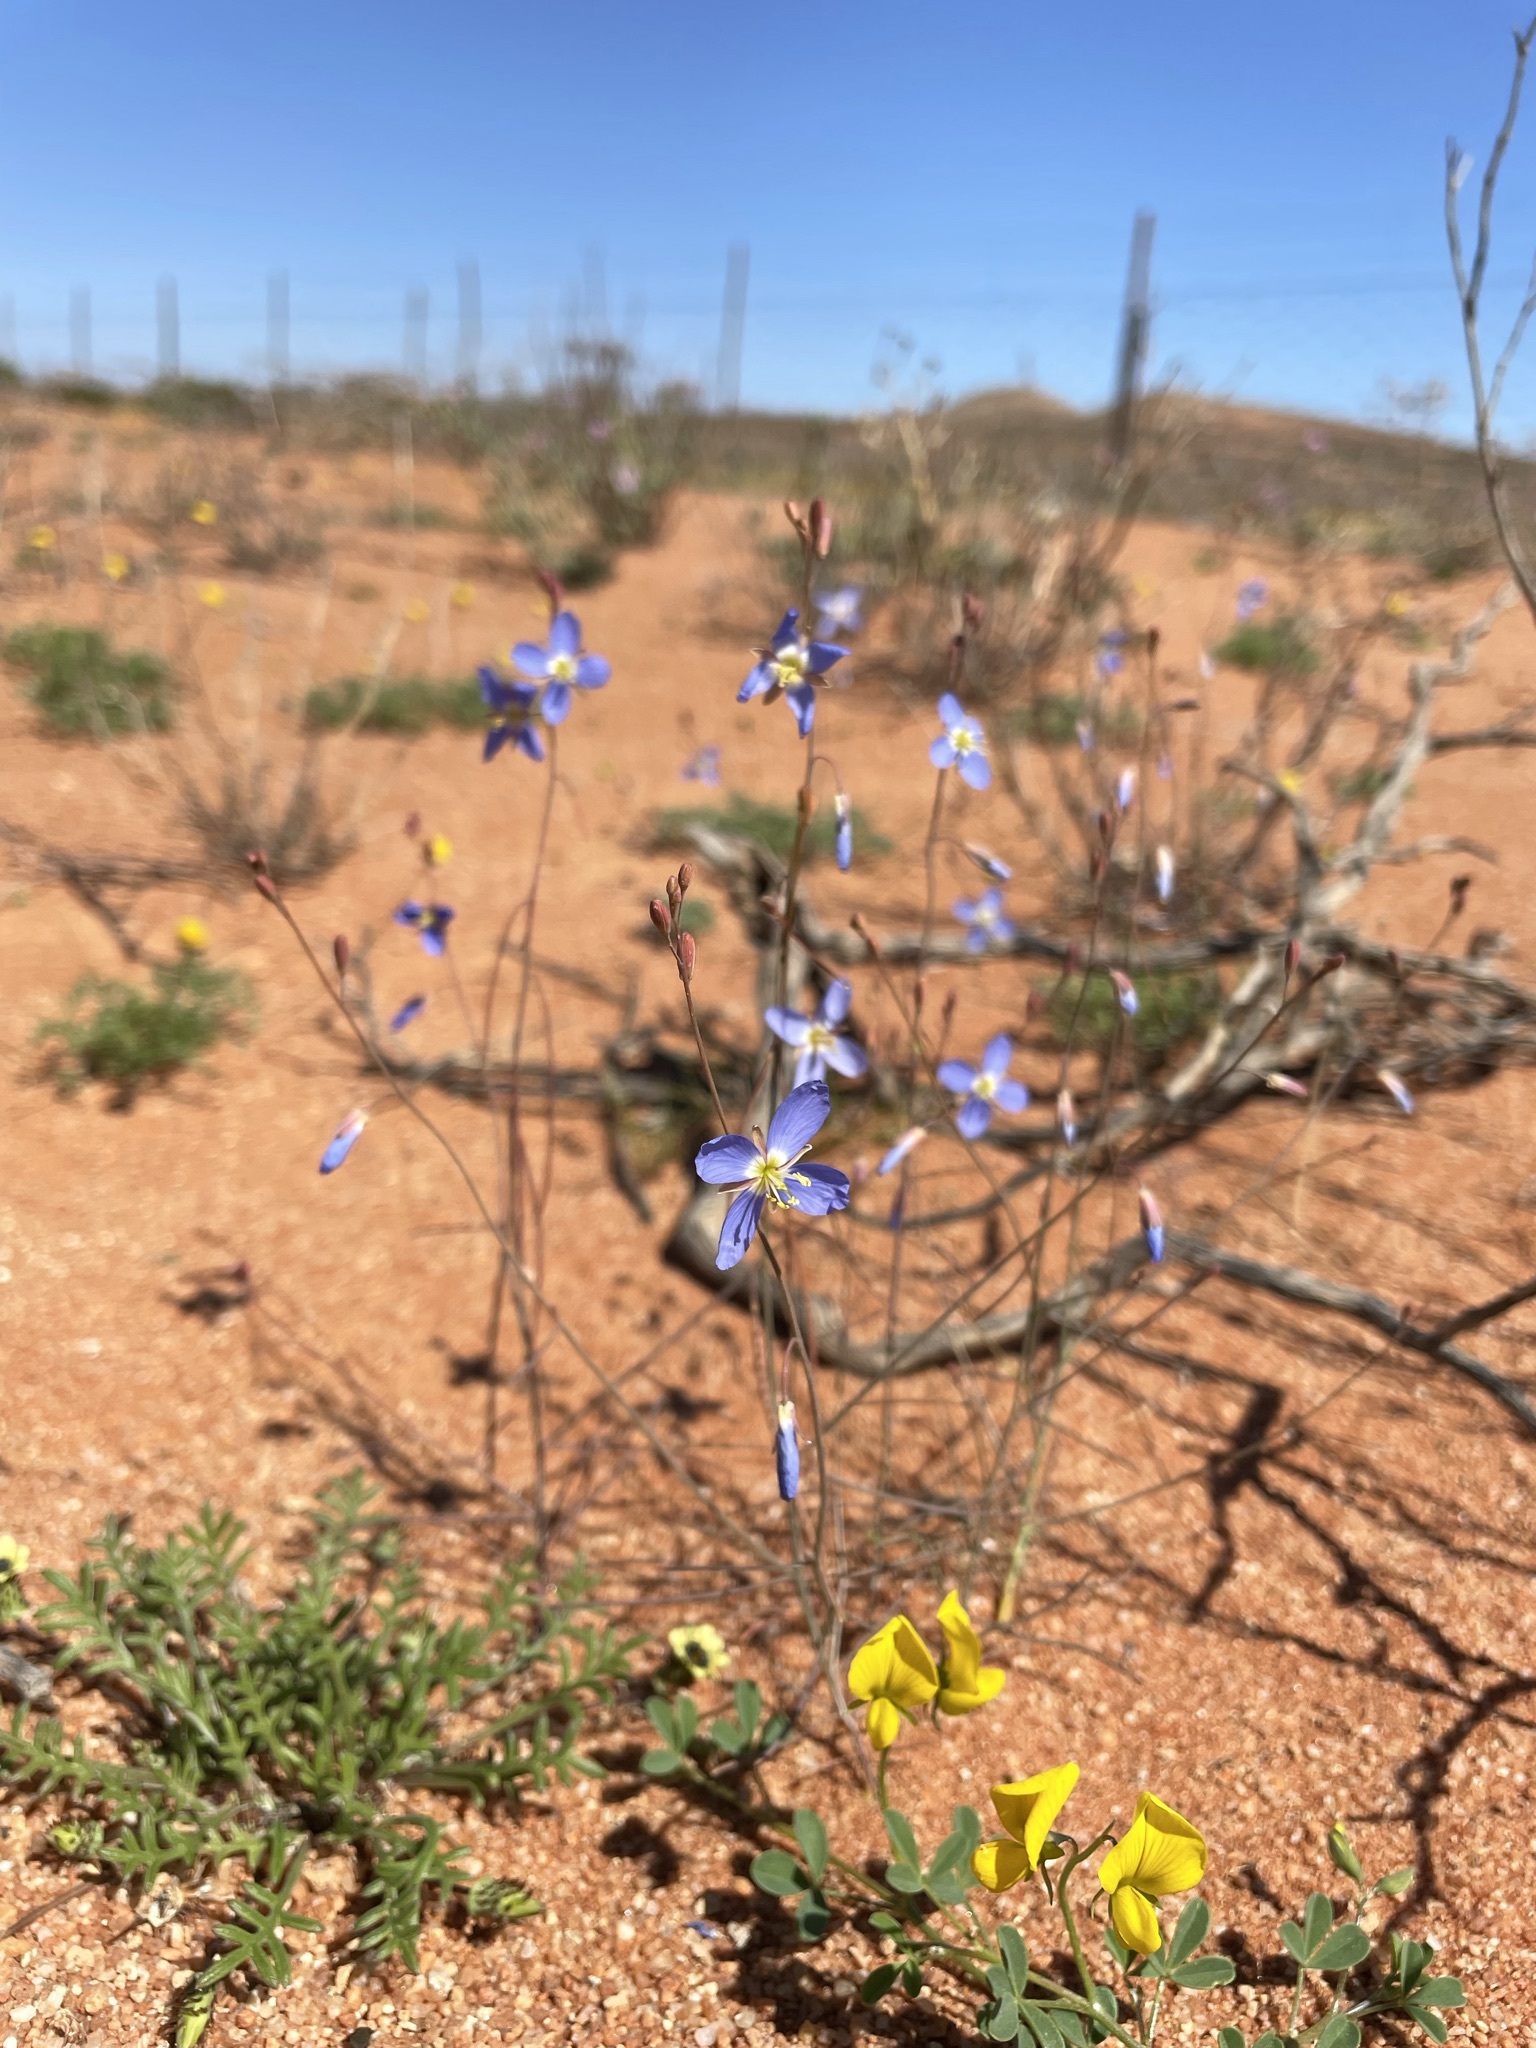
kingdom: Plantae
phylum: Tracheophyta
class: Magnoliopsida
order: Brassicales
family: Brassicaceae
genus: Heliophila
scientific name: Heliophila lactea
